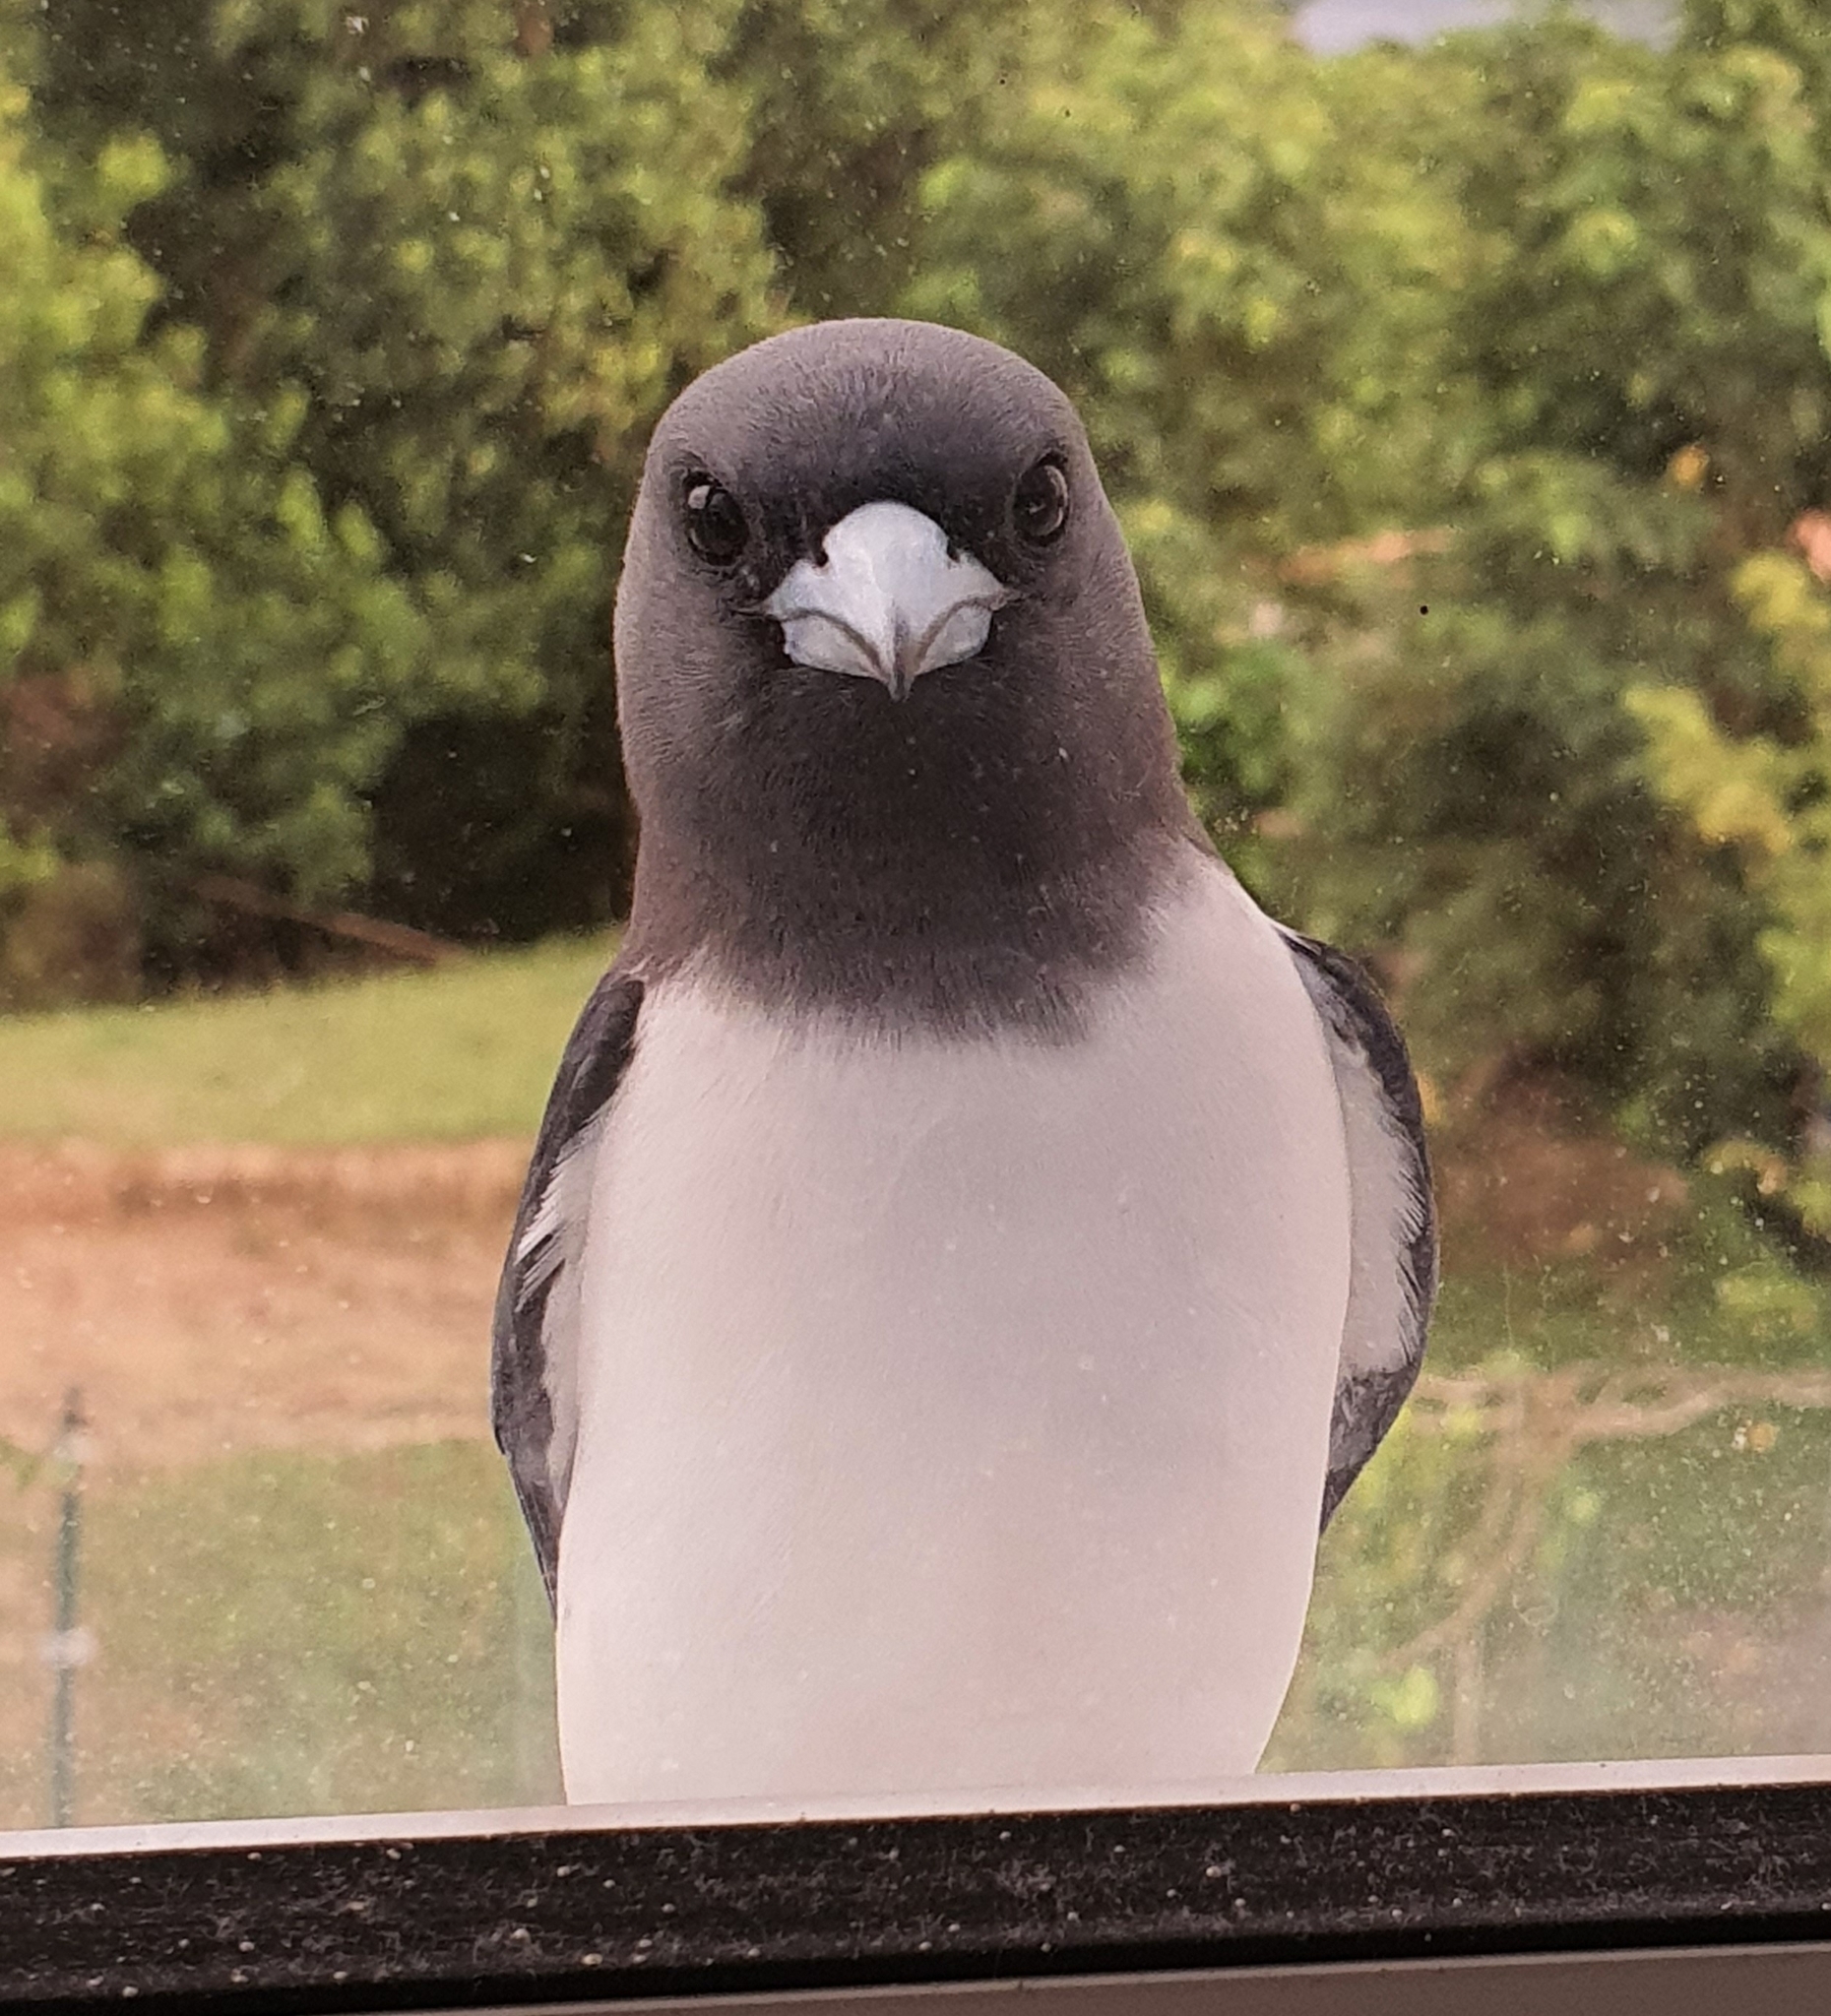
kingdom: Animalia
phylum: Chordata
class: Aves
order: Passeriformes
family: Artamidae
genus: Artamus
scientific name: Artamus leucoryn
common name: White-breasted woodswallow
